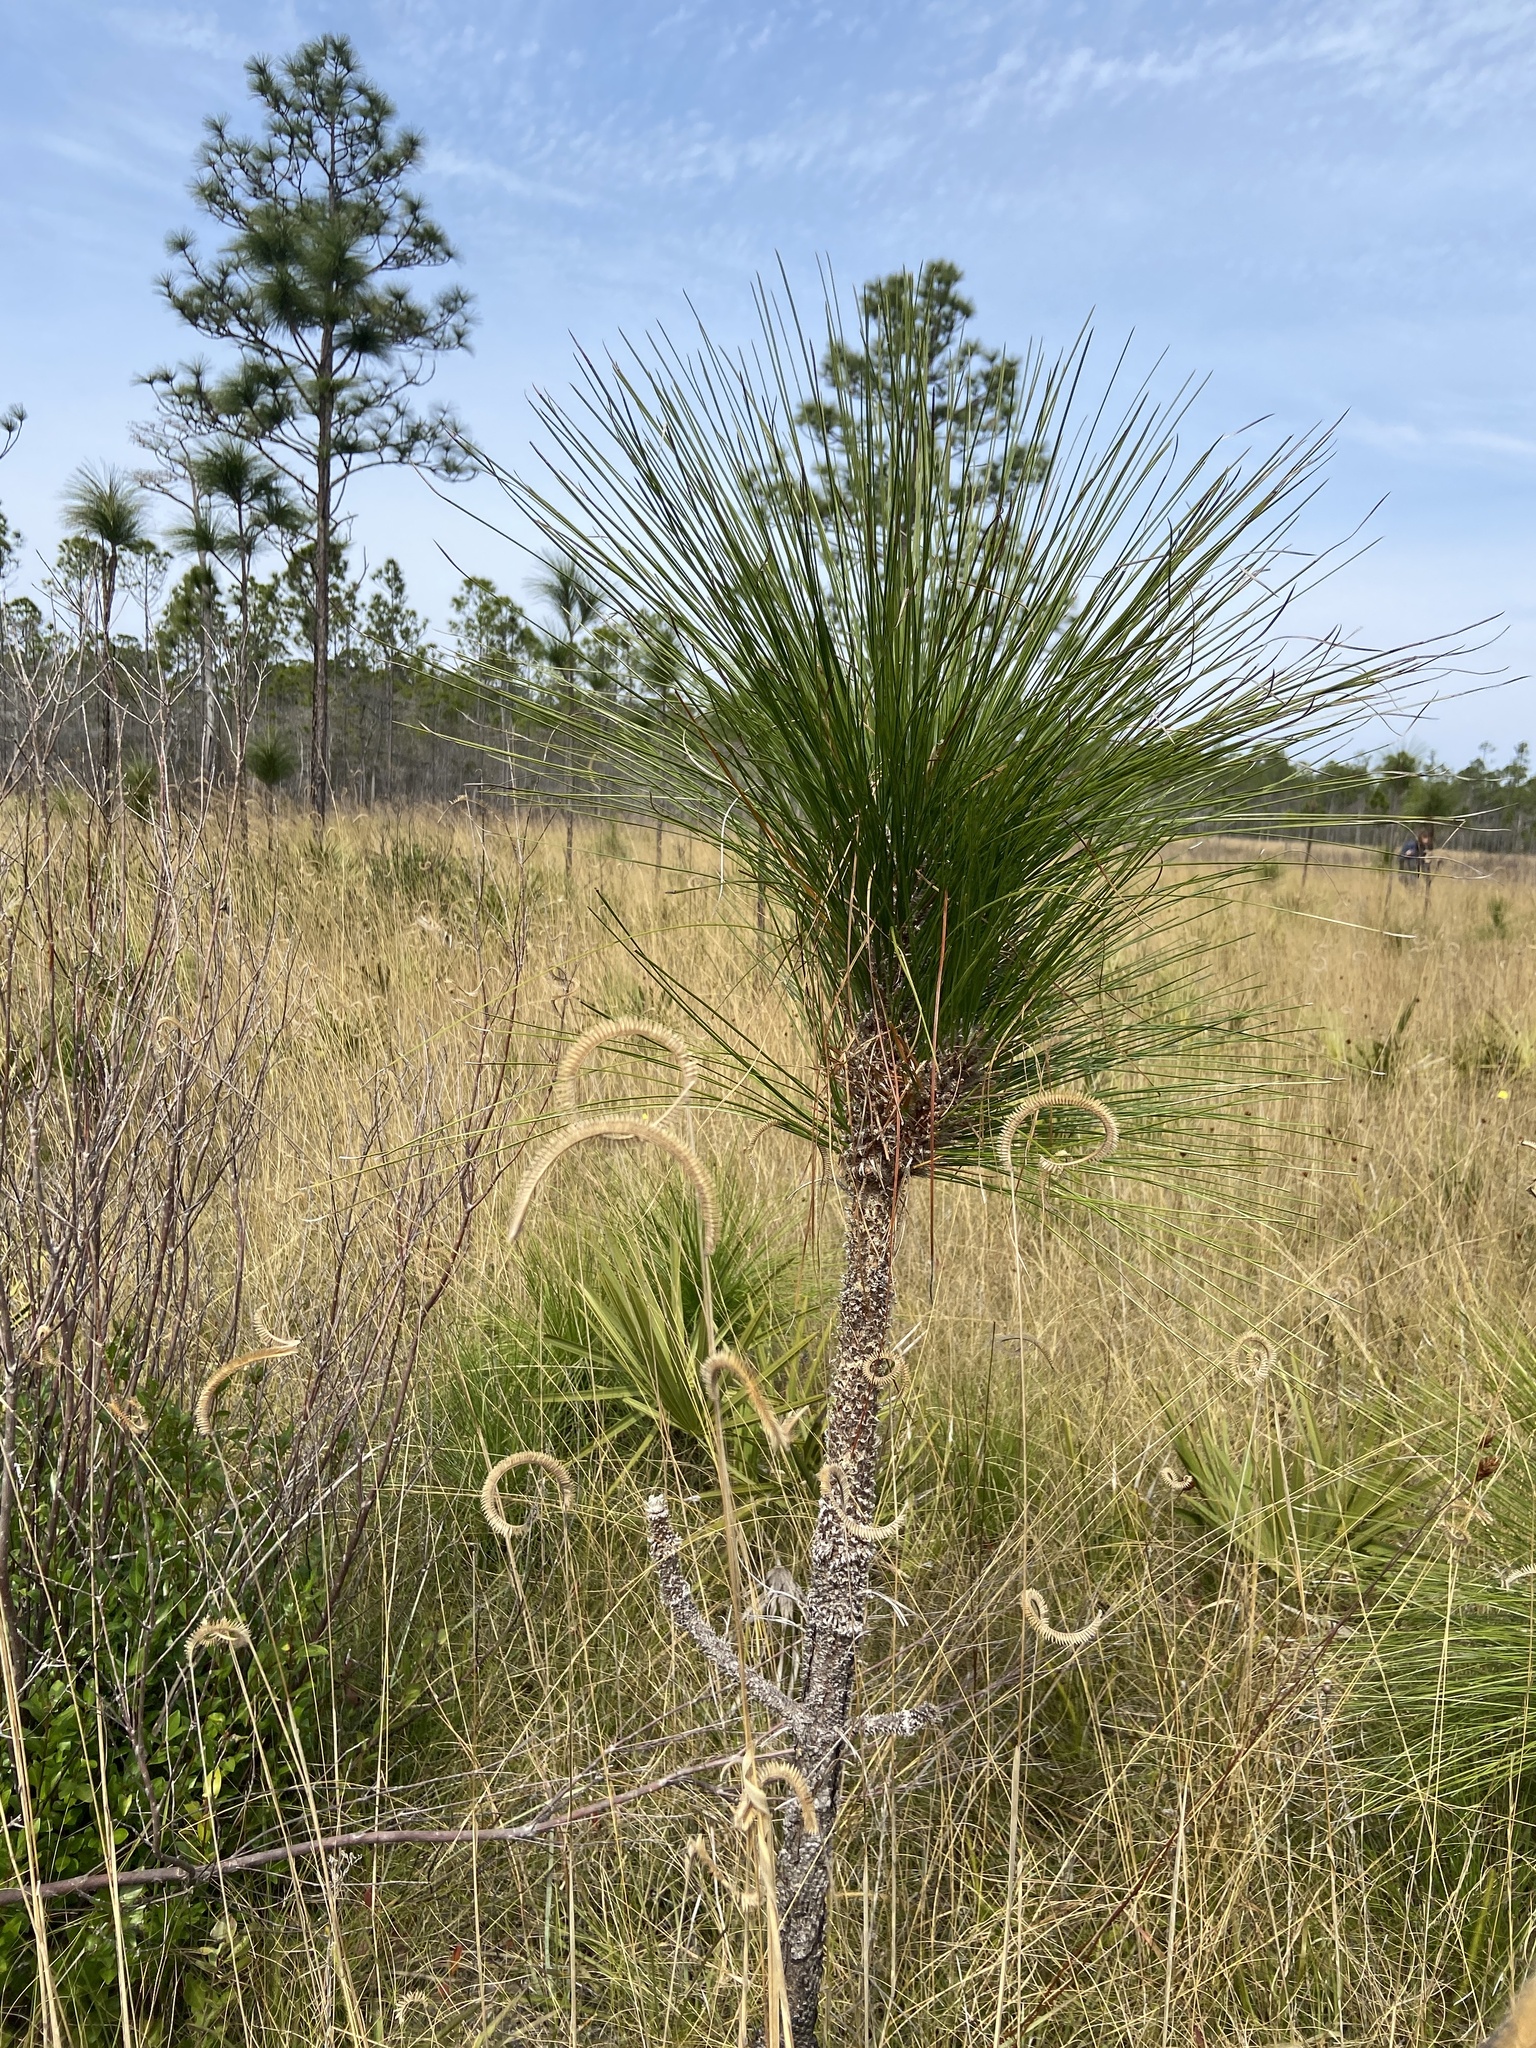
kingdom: Plantae
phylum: Tracheophyta
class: Pinopsida
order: Pinales
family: Pinaceae
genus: Pinus
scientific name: Pinus palustris
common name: Longleaf pine
